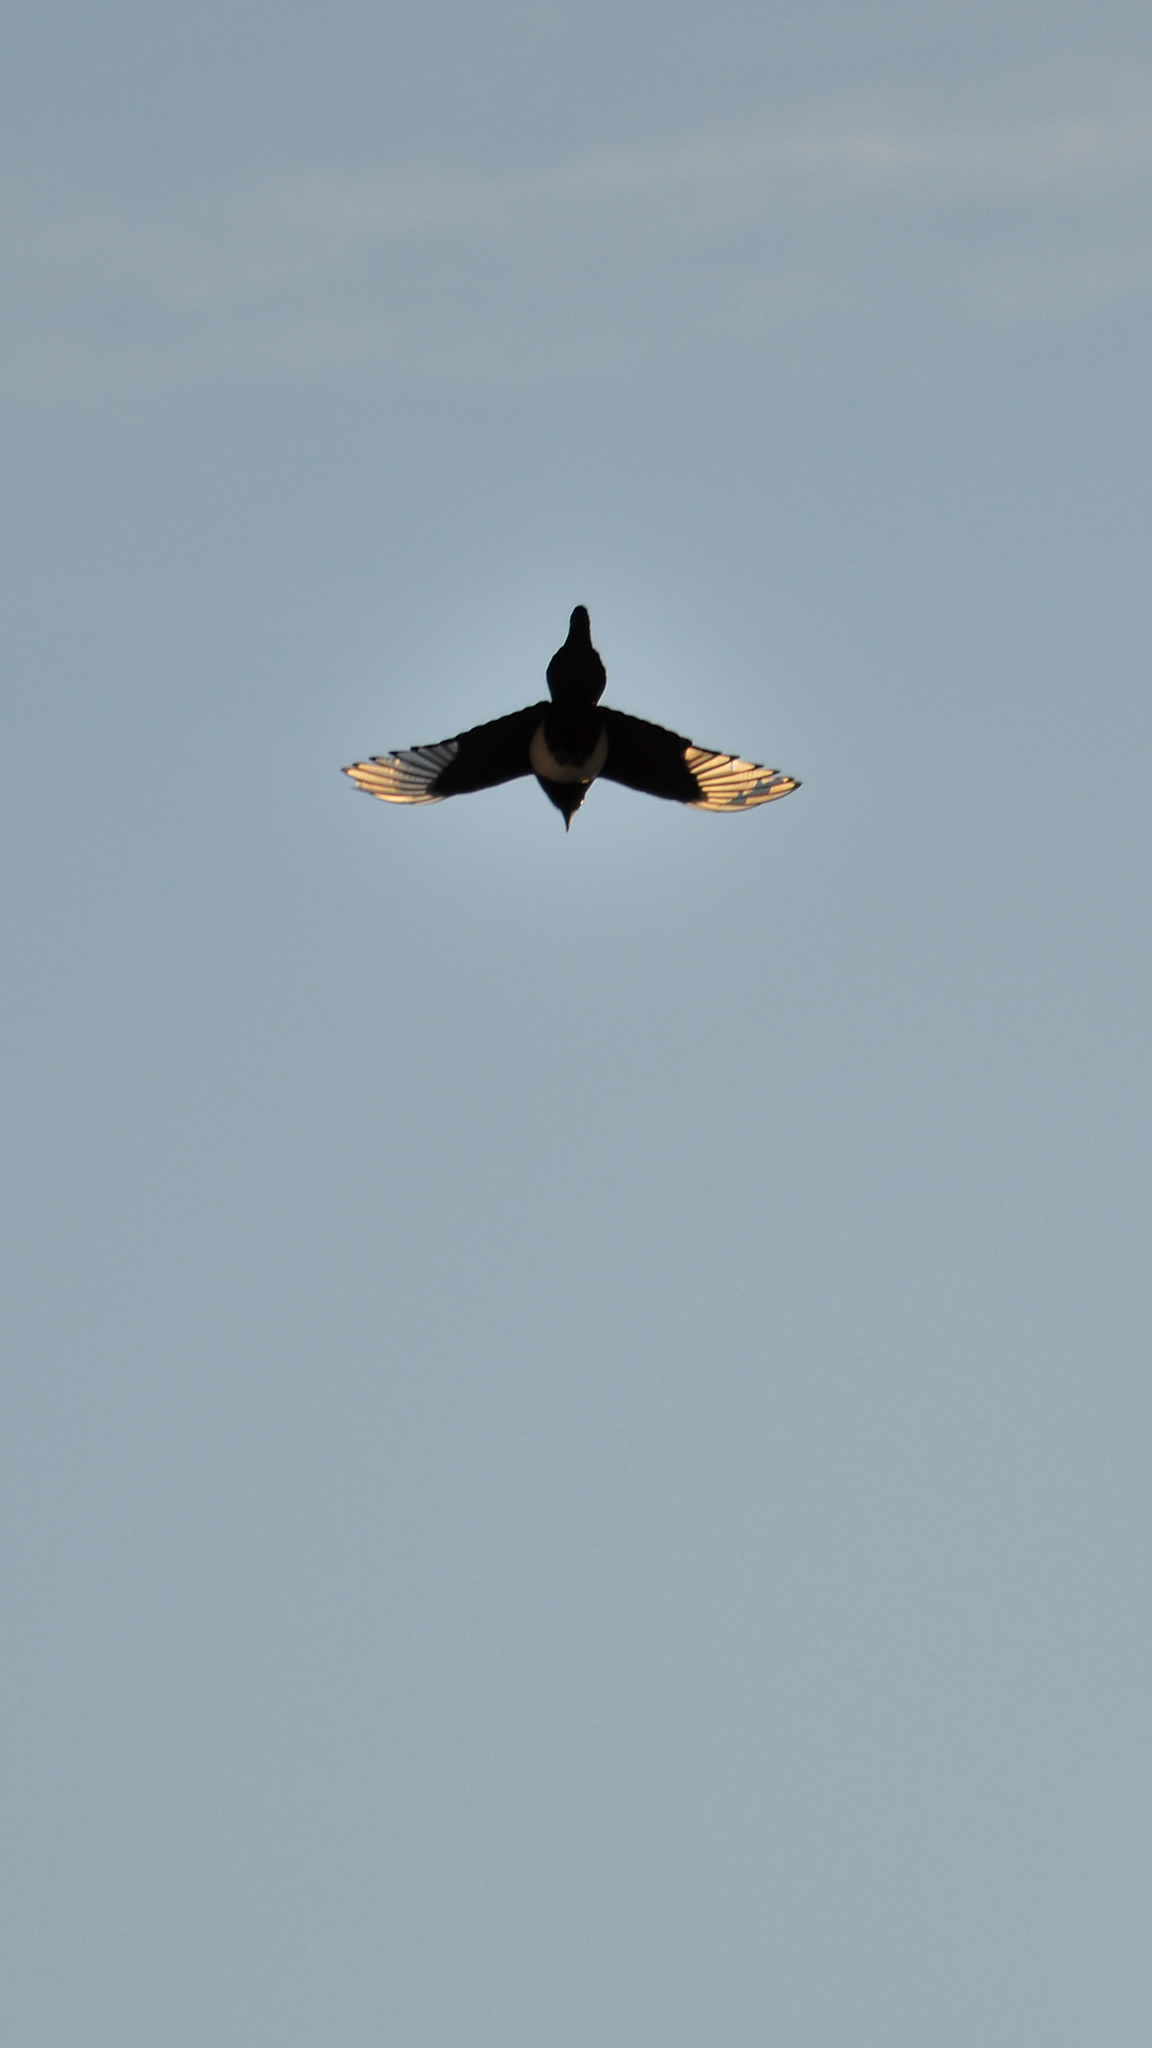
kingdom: Animalia
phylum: Chordata
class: Aves
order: Passeriformes
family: Corvidae
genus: Pica
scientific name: Pica hudsonia
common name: Black-billed magpie
